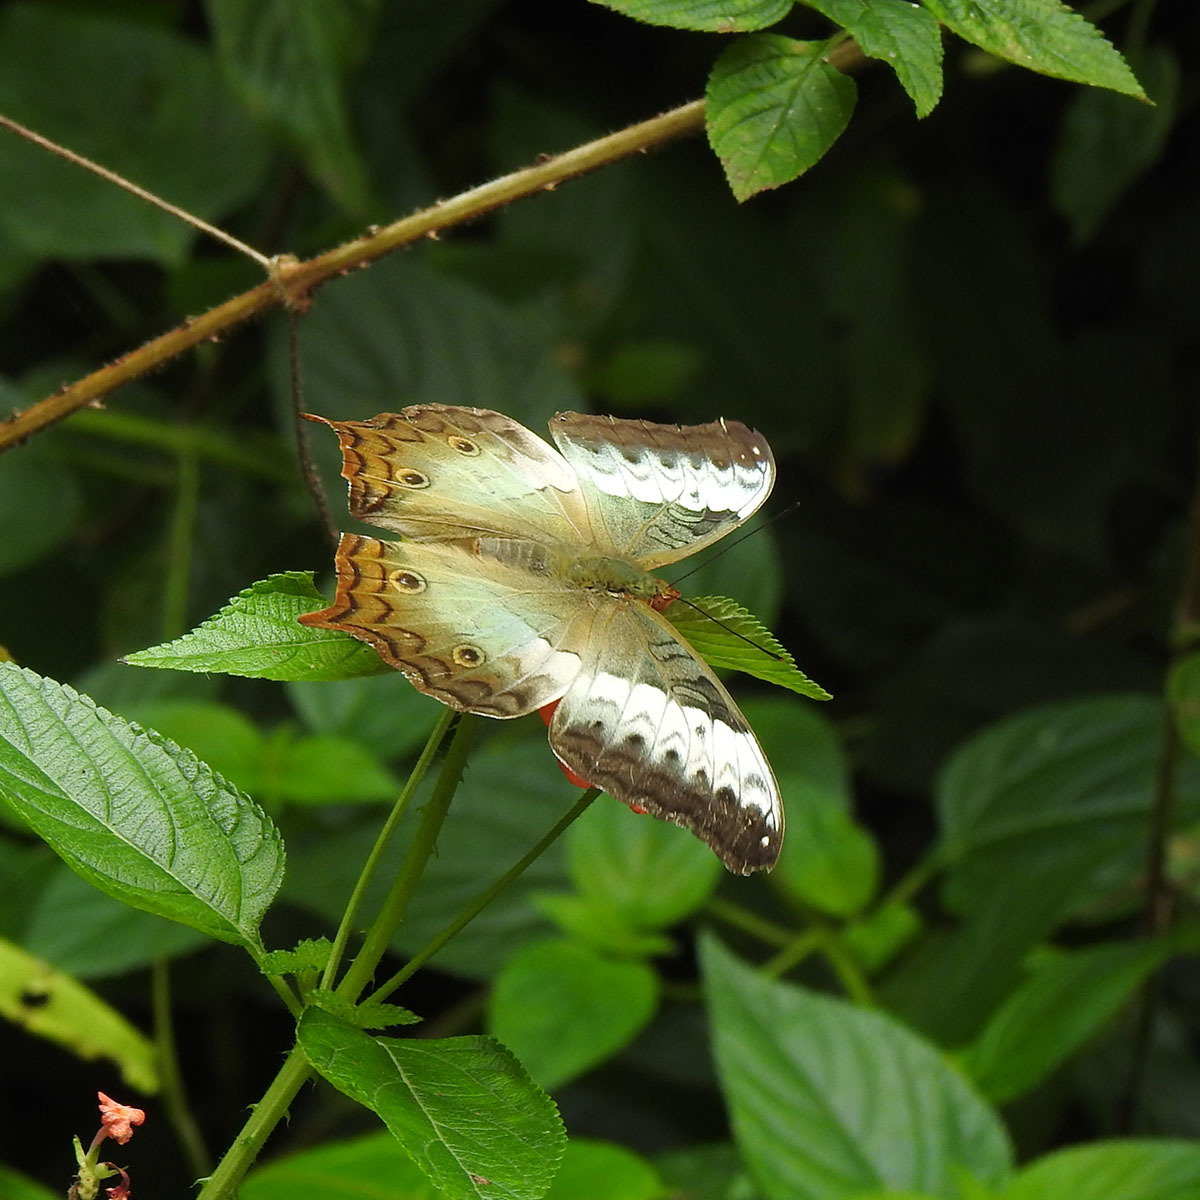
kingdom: Animalia
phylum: Arthropoda
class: Insecta
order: Lepidoptera
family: Nymphalidae
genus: Vindula
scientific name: Vindula erota
